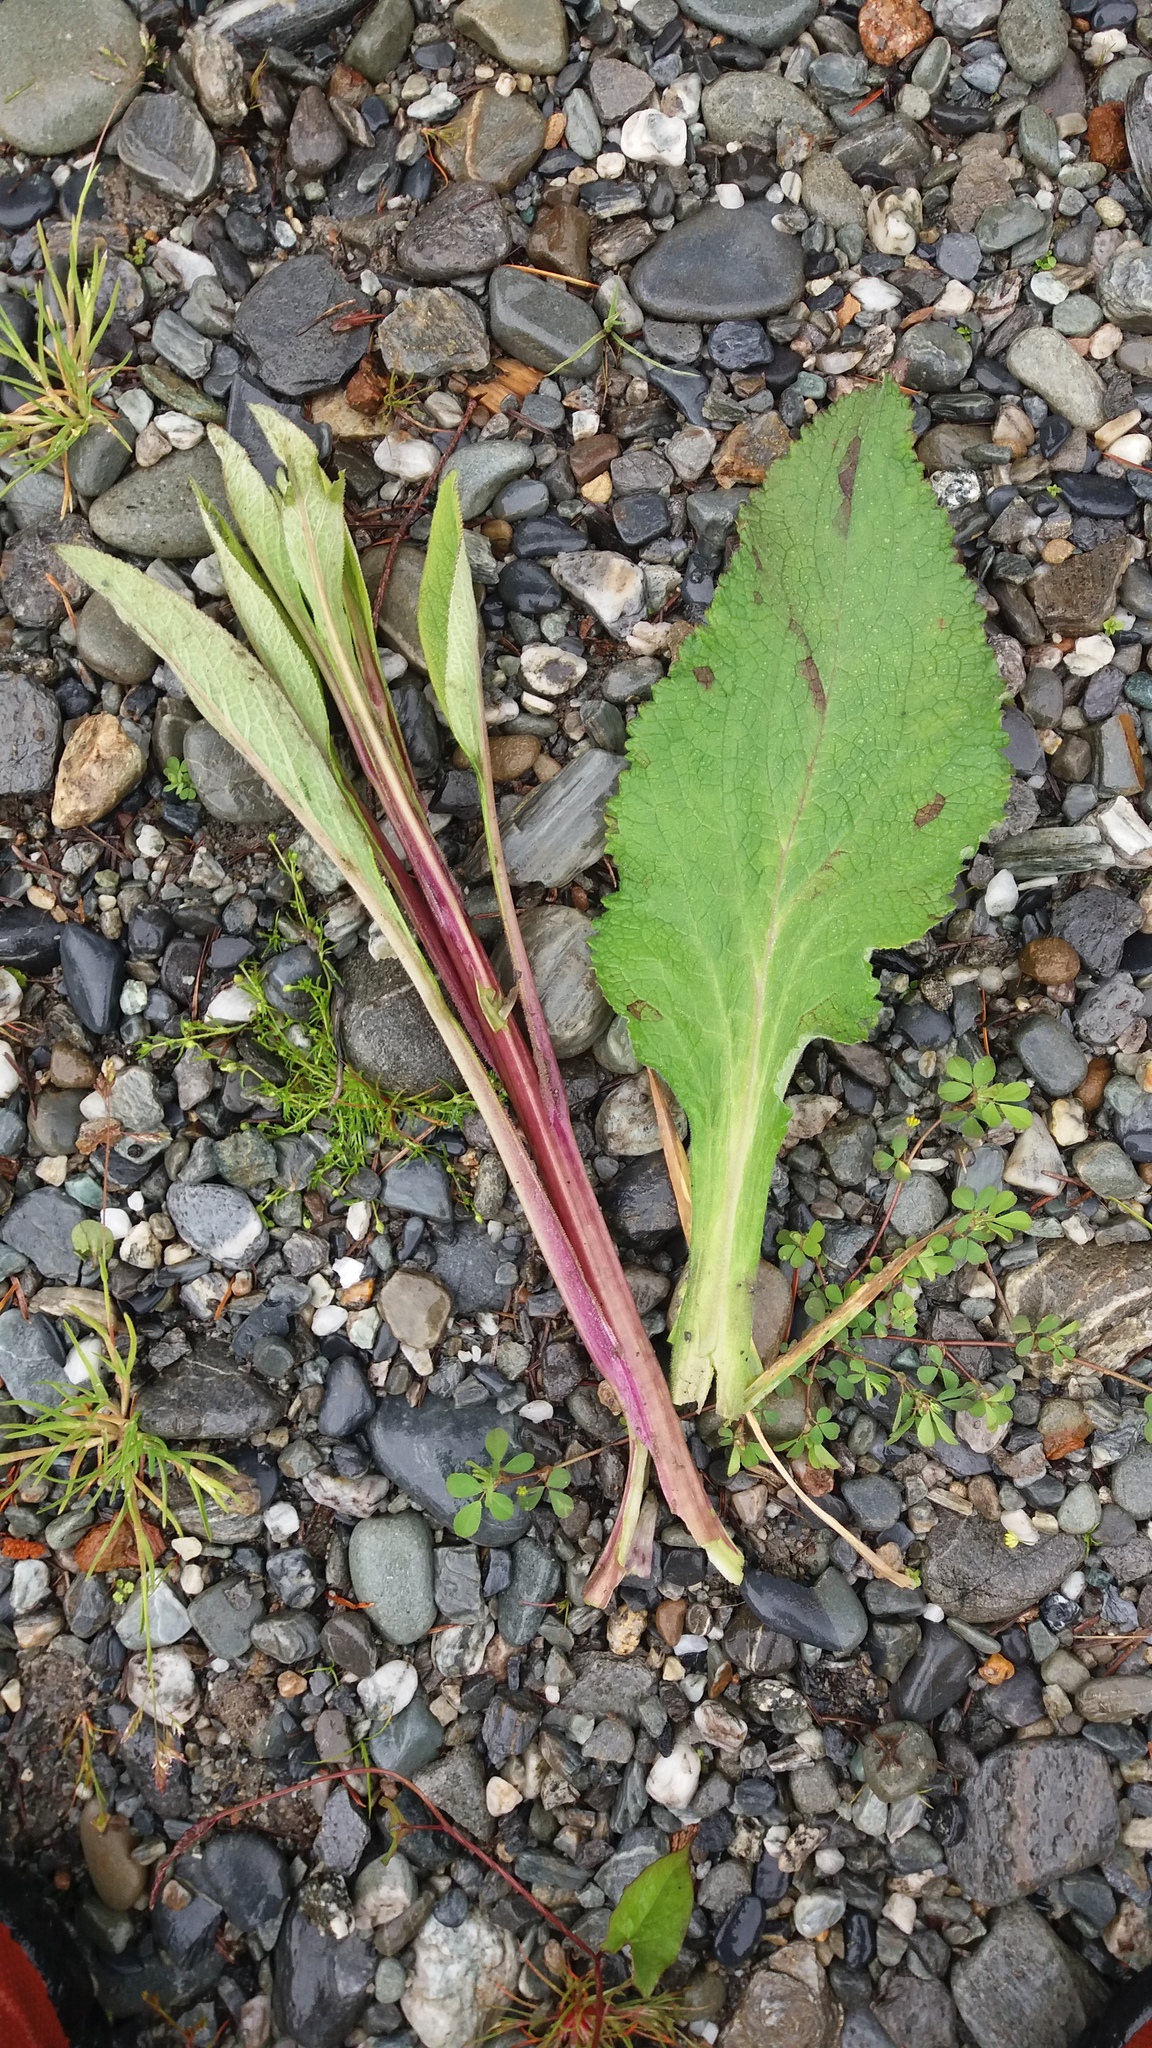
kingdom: Plantae
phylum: Tracheophyta
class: Magnoliopsida
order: Lamiales
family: Plantaginaceae
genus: Digitalis
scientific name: Digitalis purpurea
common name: Foxglove
